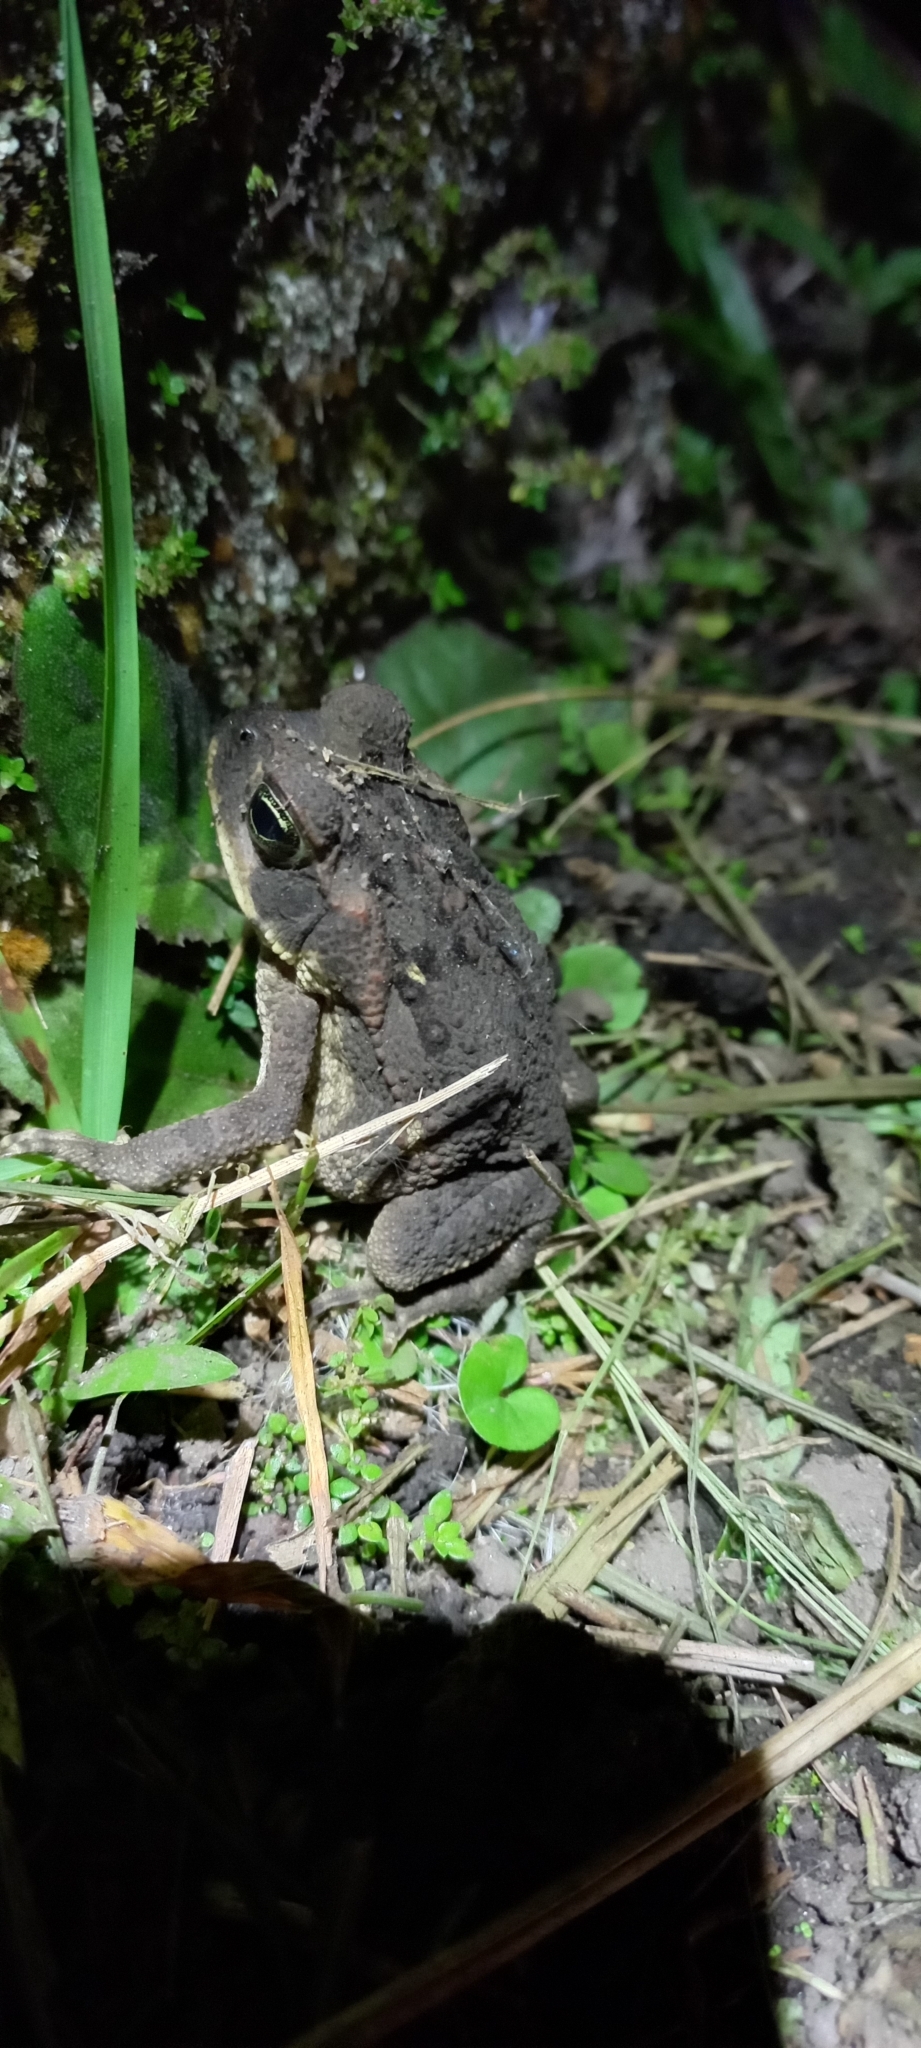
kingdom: Animalia
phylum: Chordata
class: Amphibia
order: Anura
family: Bufonidae
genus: Rhinella
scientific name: Rhinella horribilis
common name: Mesoamerican cane toad
